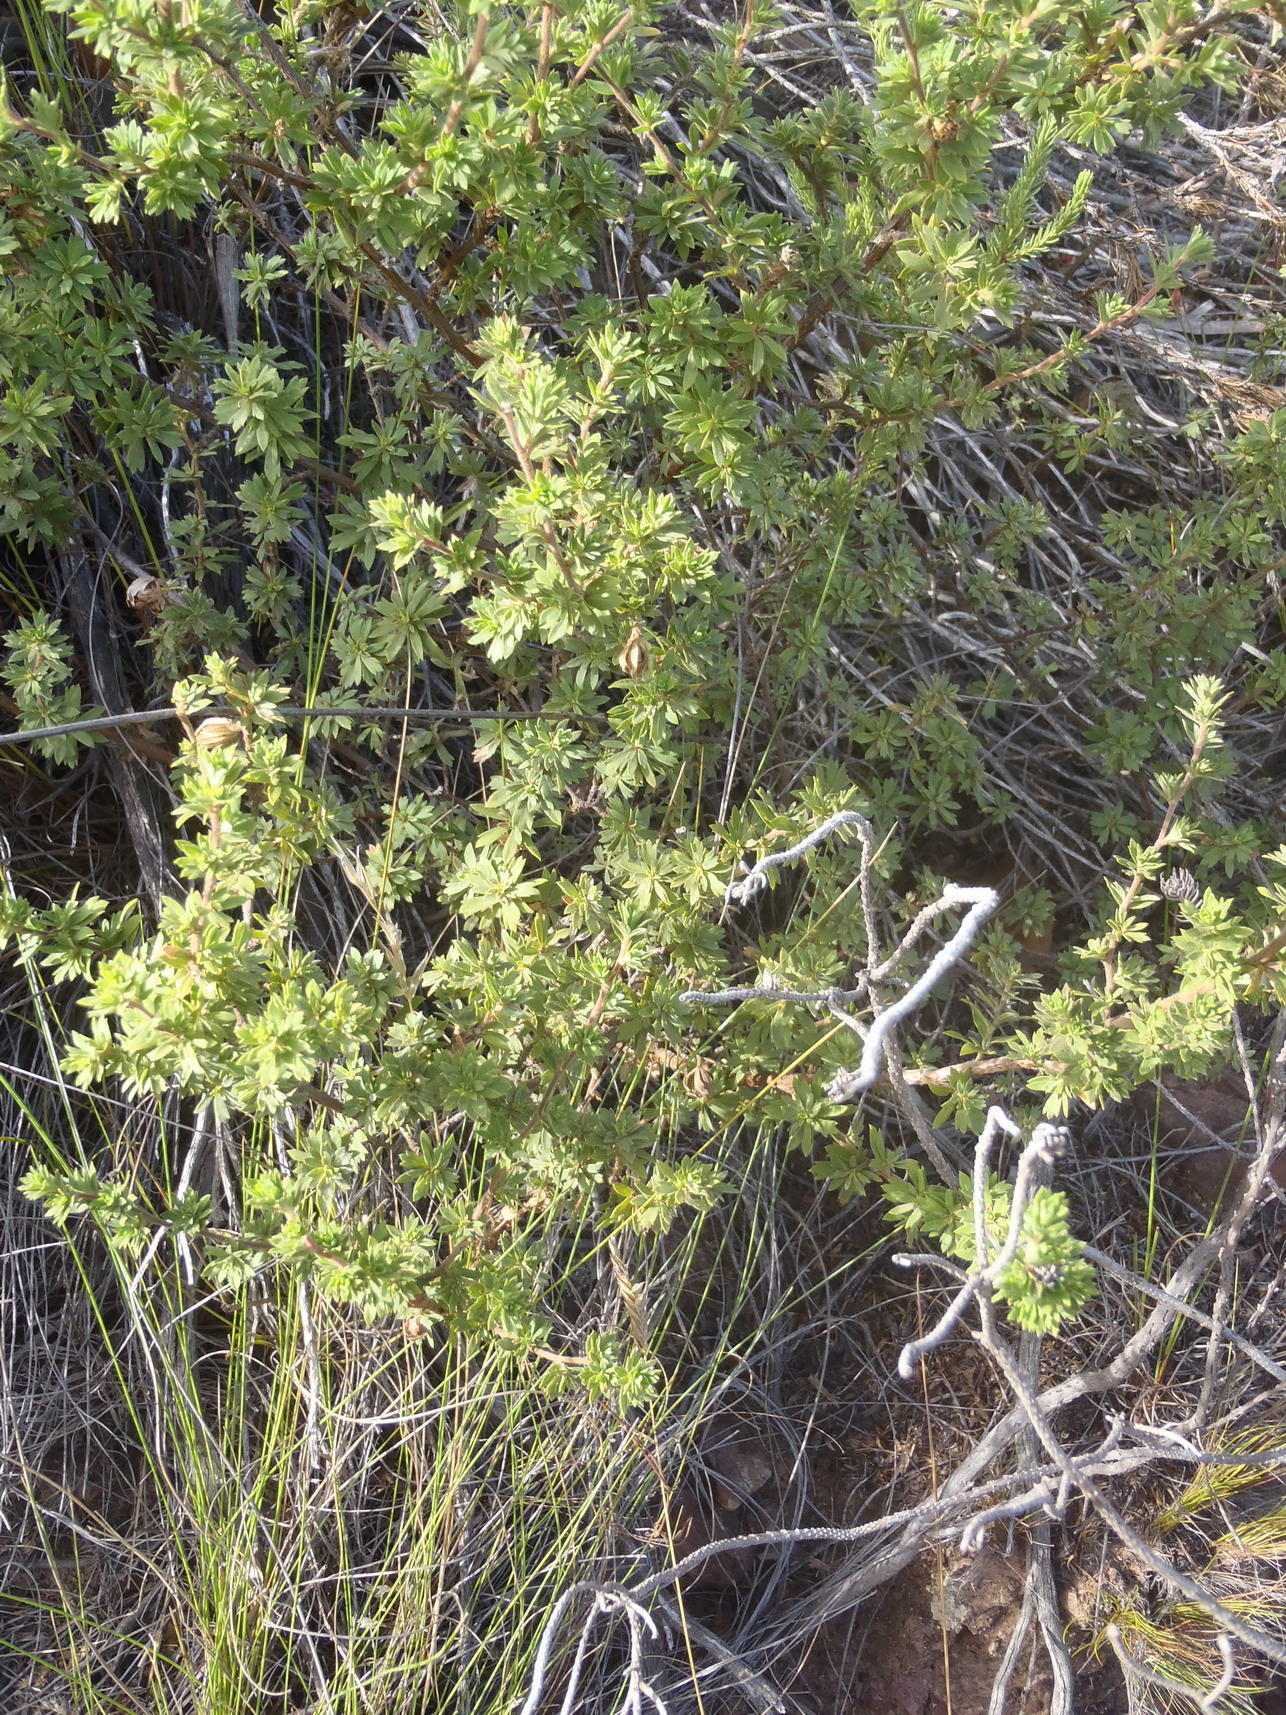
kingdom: Plantae
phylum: Tracheophyta
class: Magnoliopsida
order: Rosales
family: Rosaceae
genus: Cliffortia
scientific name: Cliffortia polygonifolia
